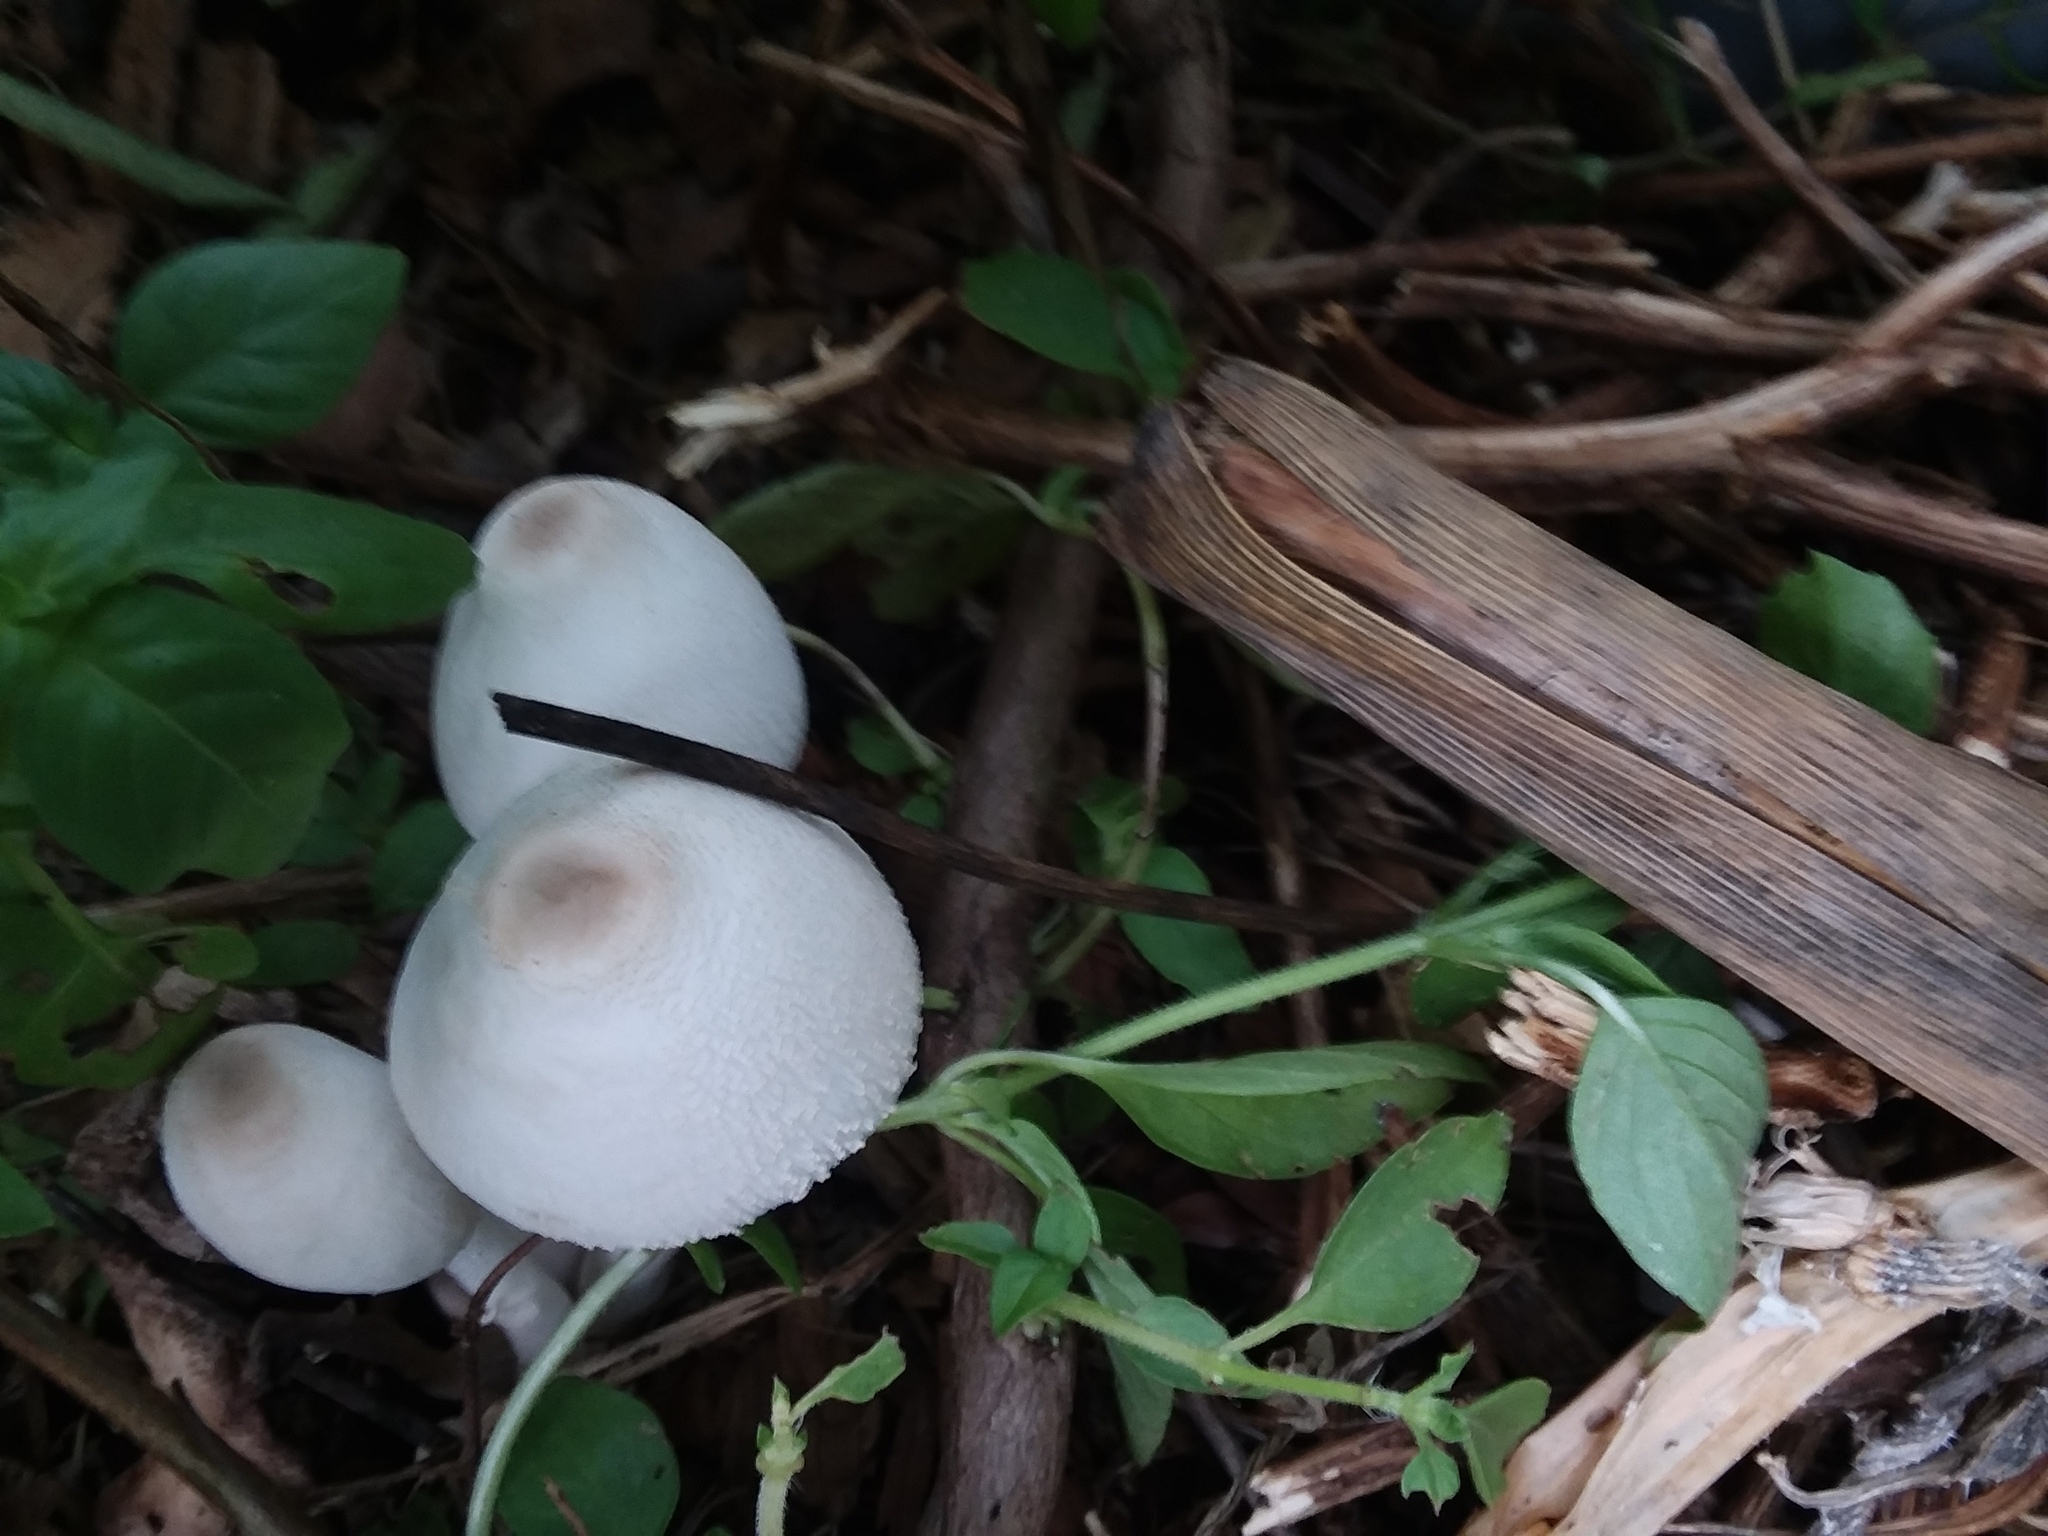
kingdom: Fungi
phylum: Basidiomycota
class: Agaricomycetes
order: Agaricales
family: Agaricaceae
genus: Leucocoprinus
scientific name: Leucocoprinus cepistipes
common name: Onion-stalk parasol
